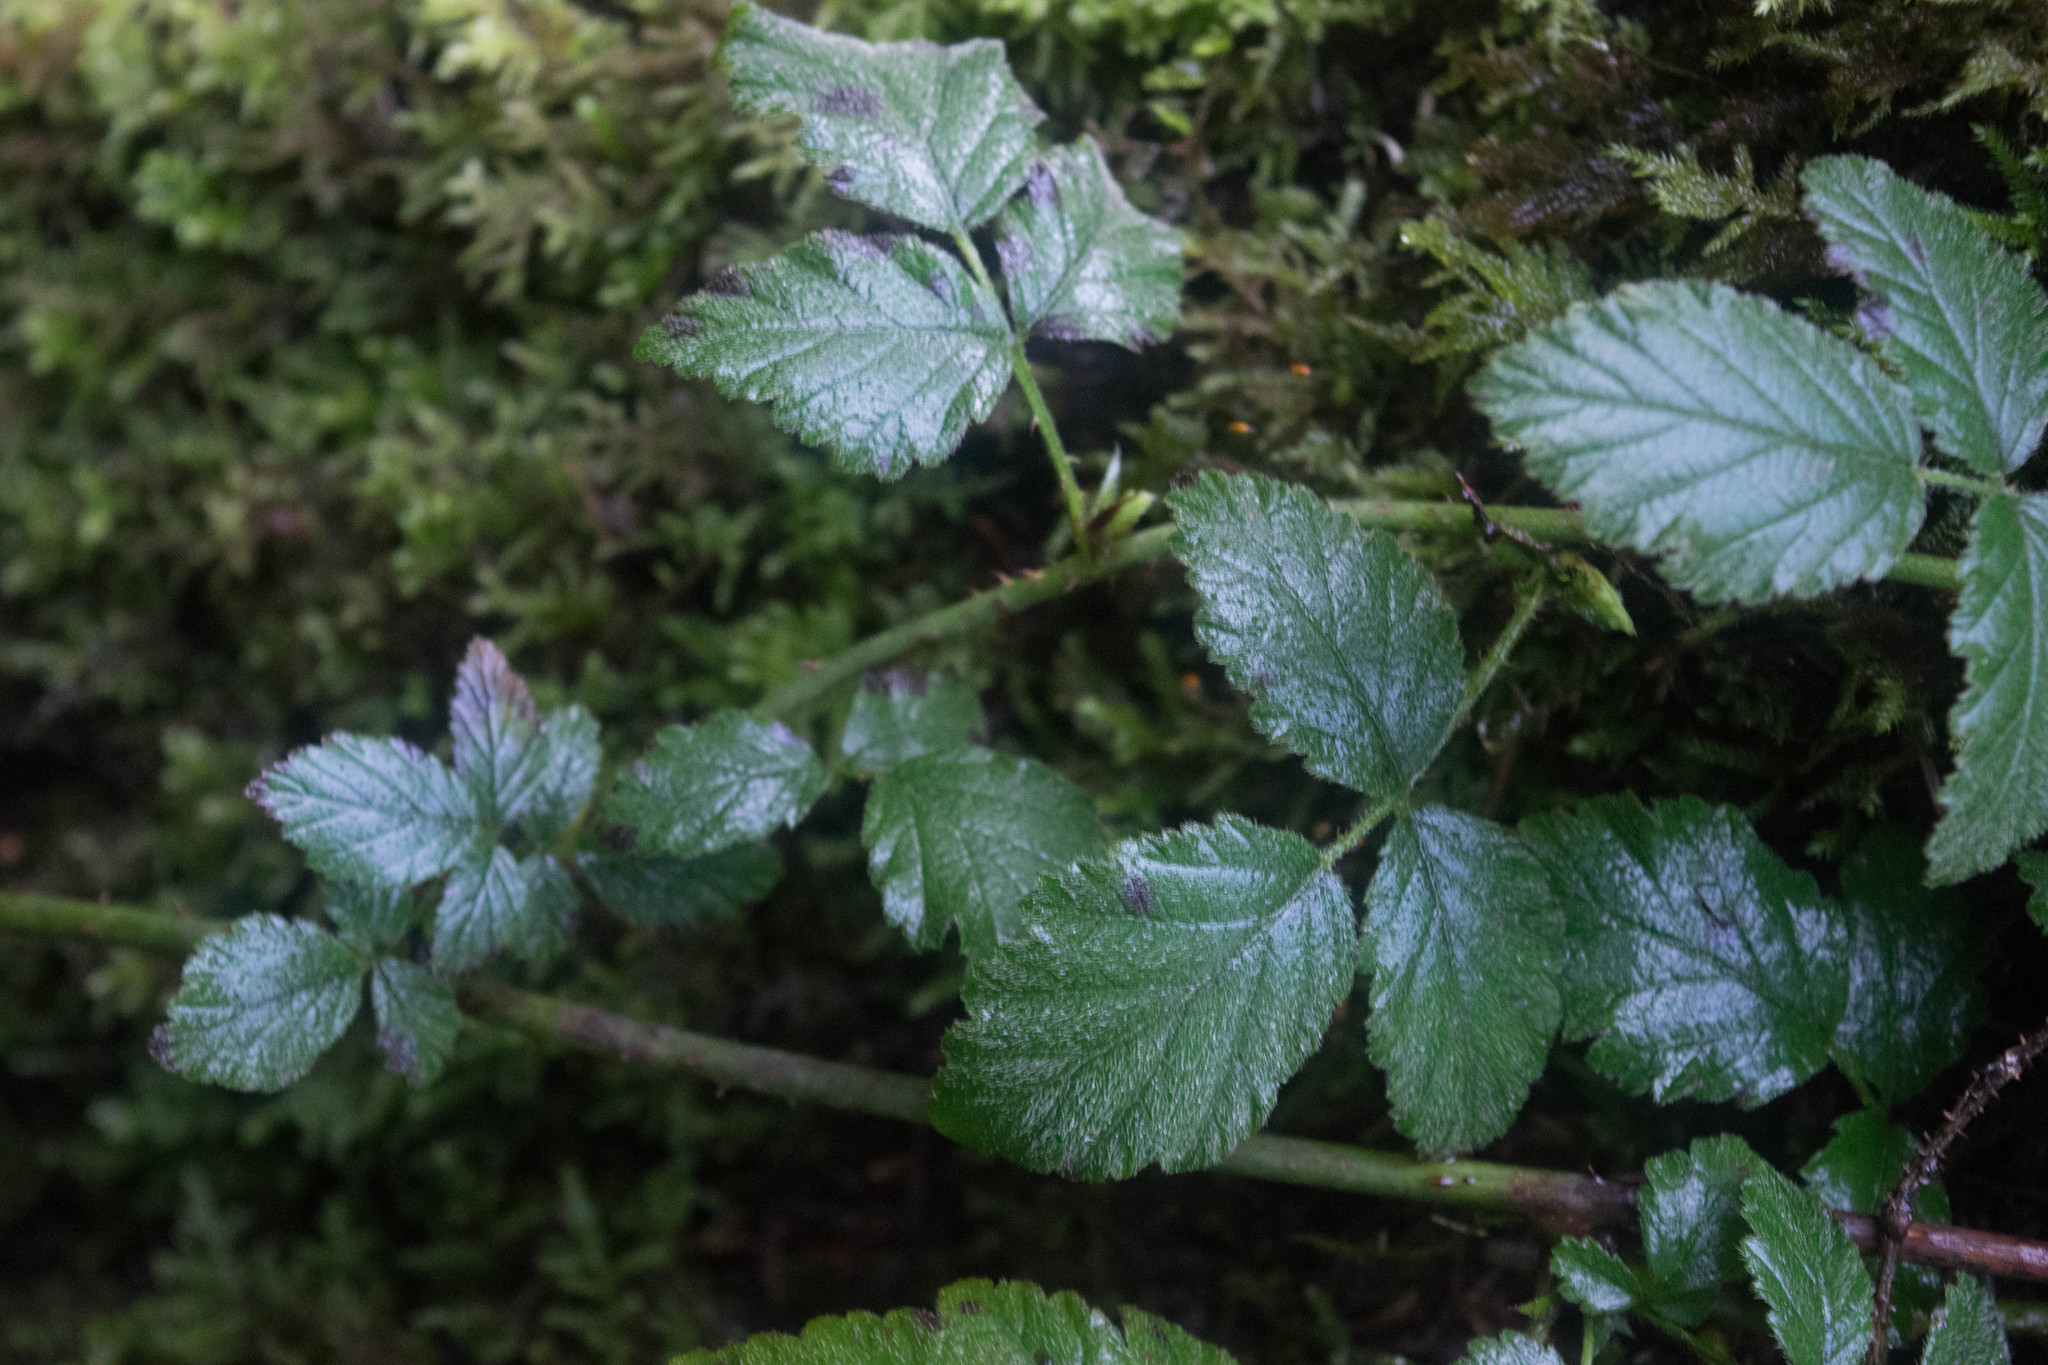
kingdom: Plantae
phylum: Tracheophyta
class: Magnoliopsida
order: Rosales
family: Rosaceae
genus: Rubus
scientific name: Rubus ursinus
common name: Pacific blackberry
